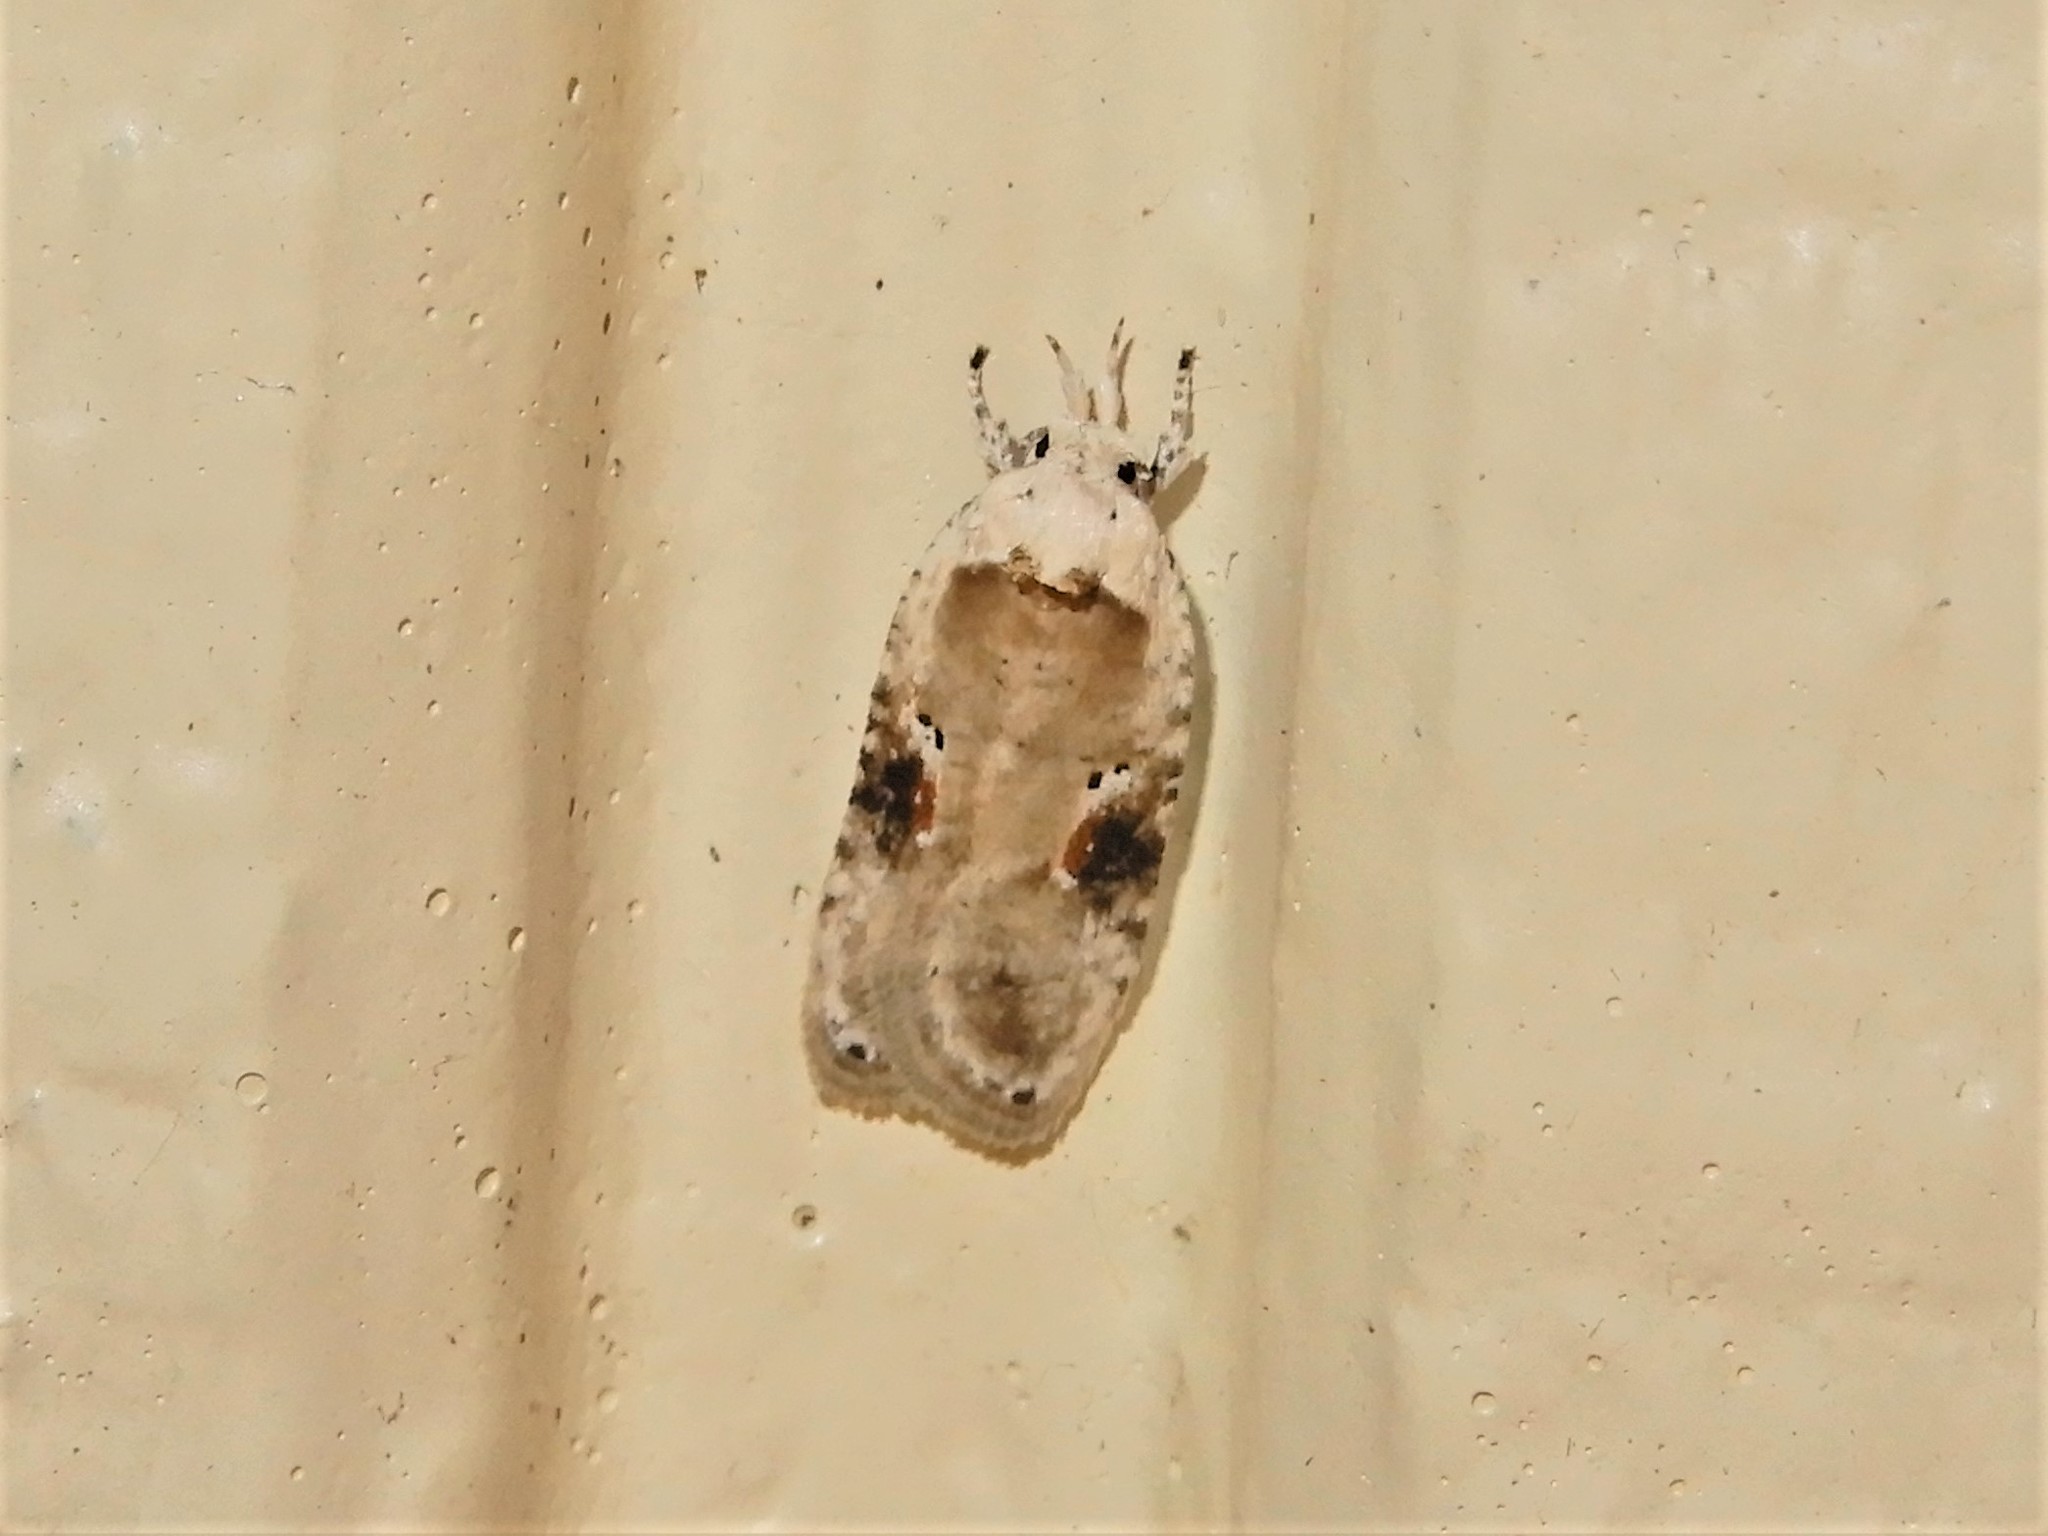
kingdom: Animalia
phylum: Arthropoda
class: Insecta
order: Lepidoptera
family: Depressariidae
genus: Agonopterix
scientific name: Agonopterix alstroemeriana
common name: Moth
